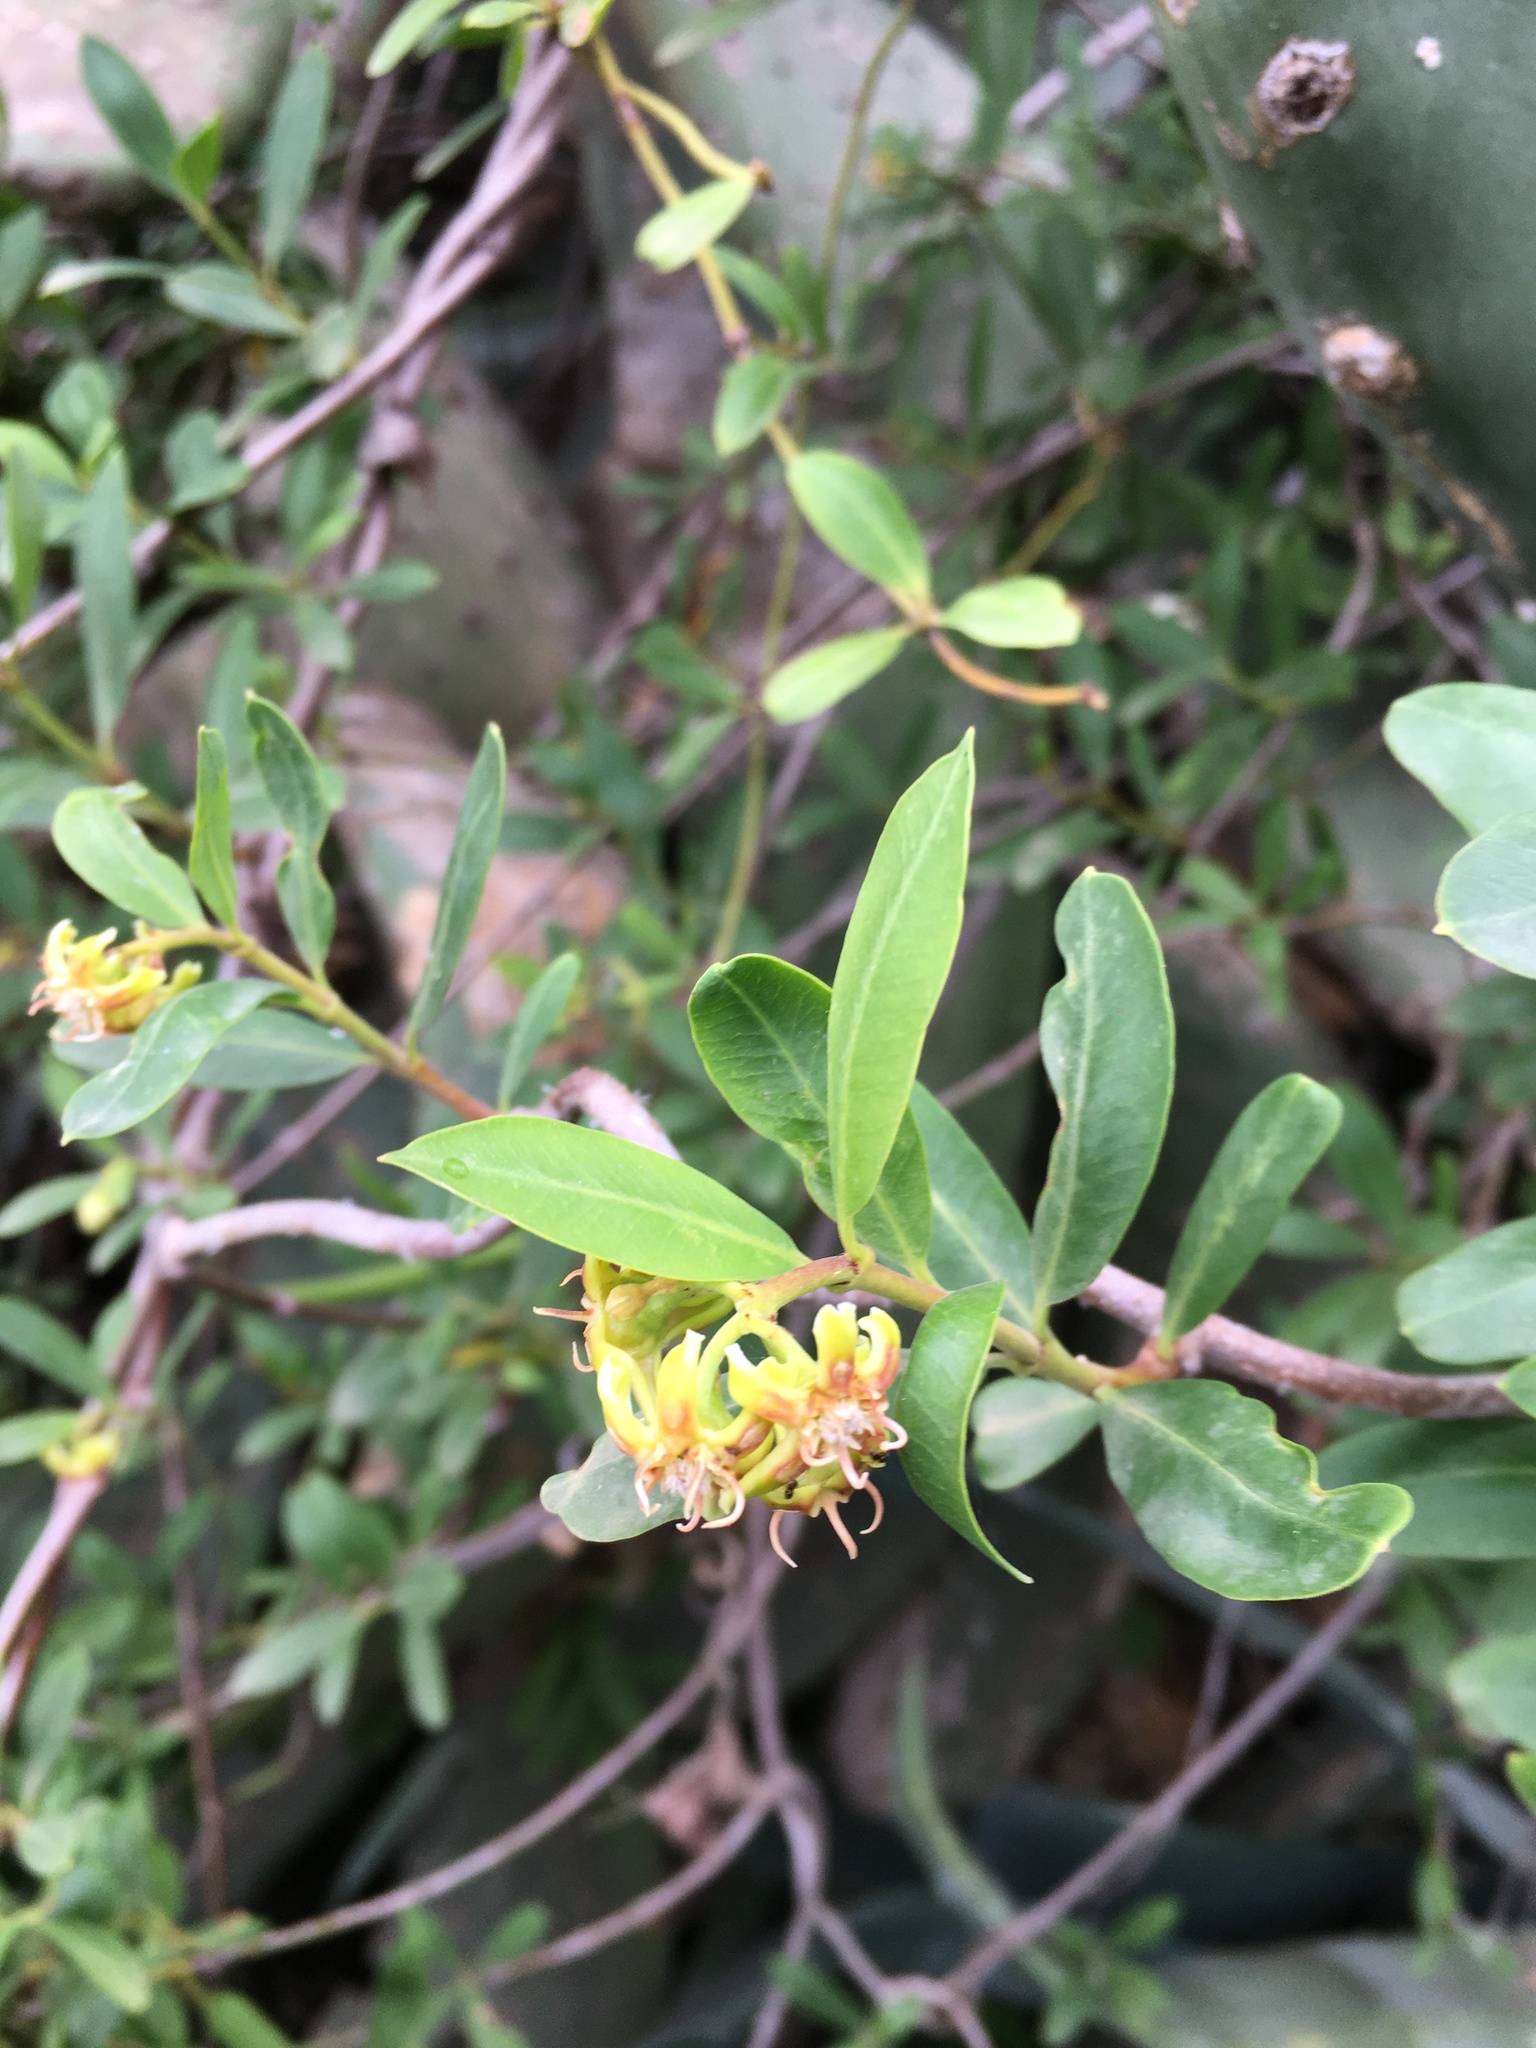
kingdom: Plantae
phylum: Tracheophyta
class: Magnoliopsida
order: Gentianales
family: Apocynaceae
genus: Periploca
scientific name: Periploca laevigata
